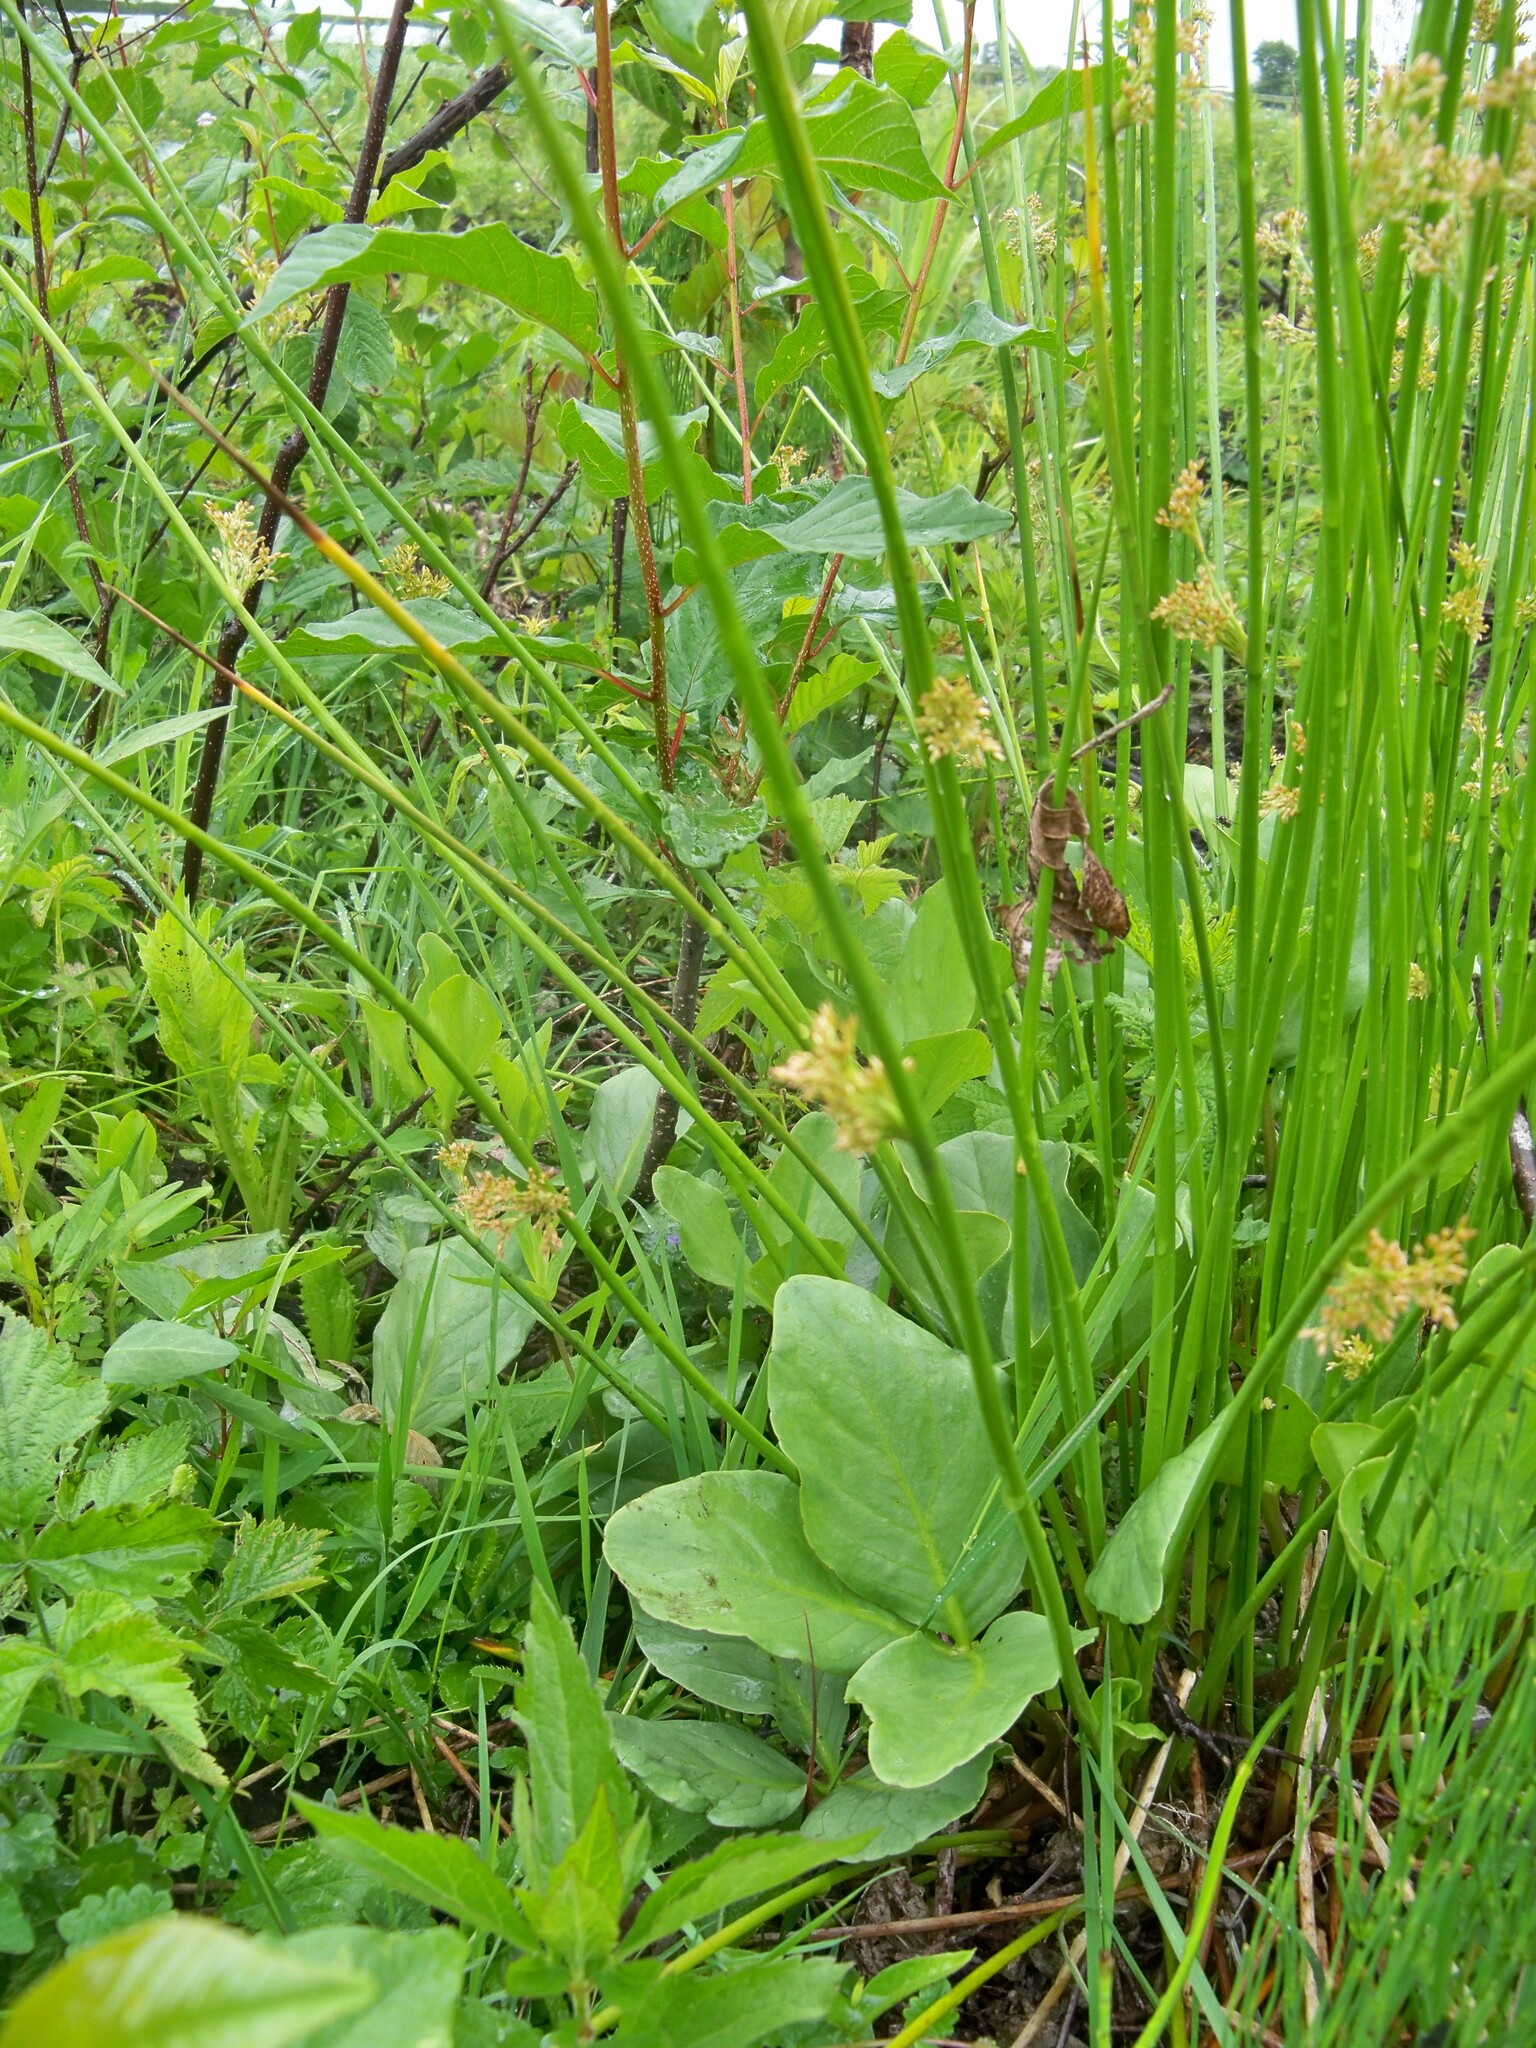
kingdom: Plantae
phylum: Tracheophyta
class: Liliopsida
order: Poales
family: Juncaceae
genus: Juncus
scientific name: Juncus effusus
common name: Soft rush
